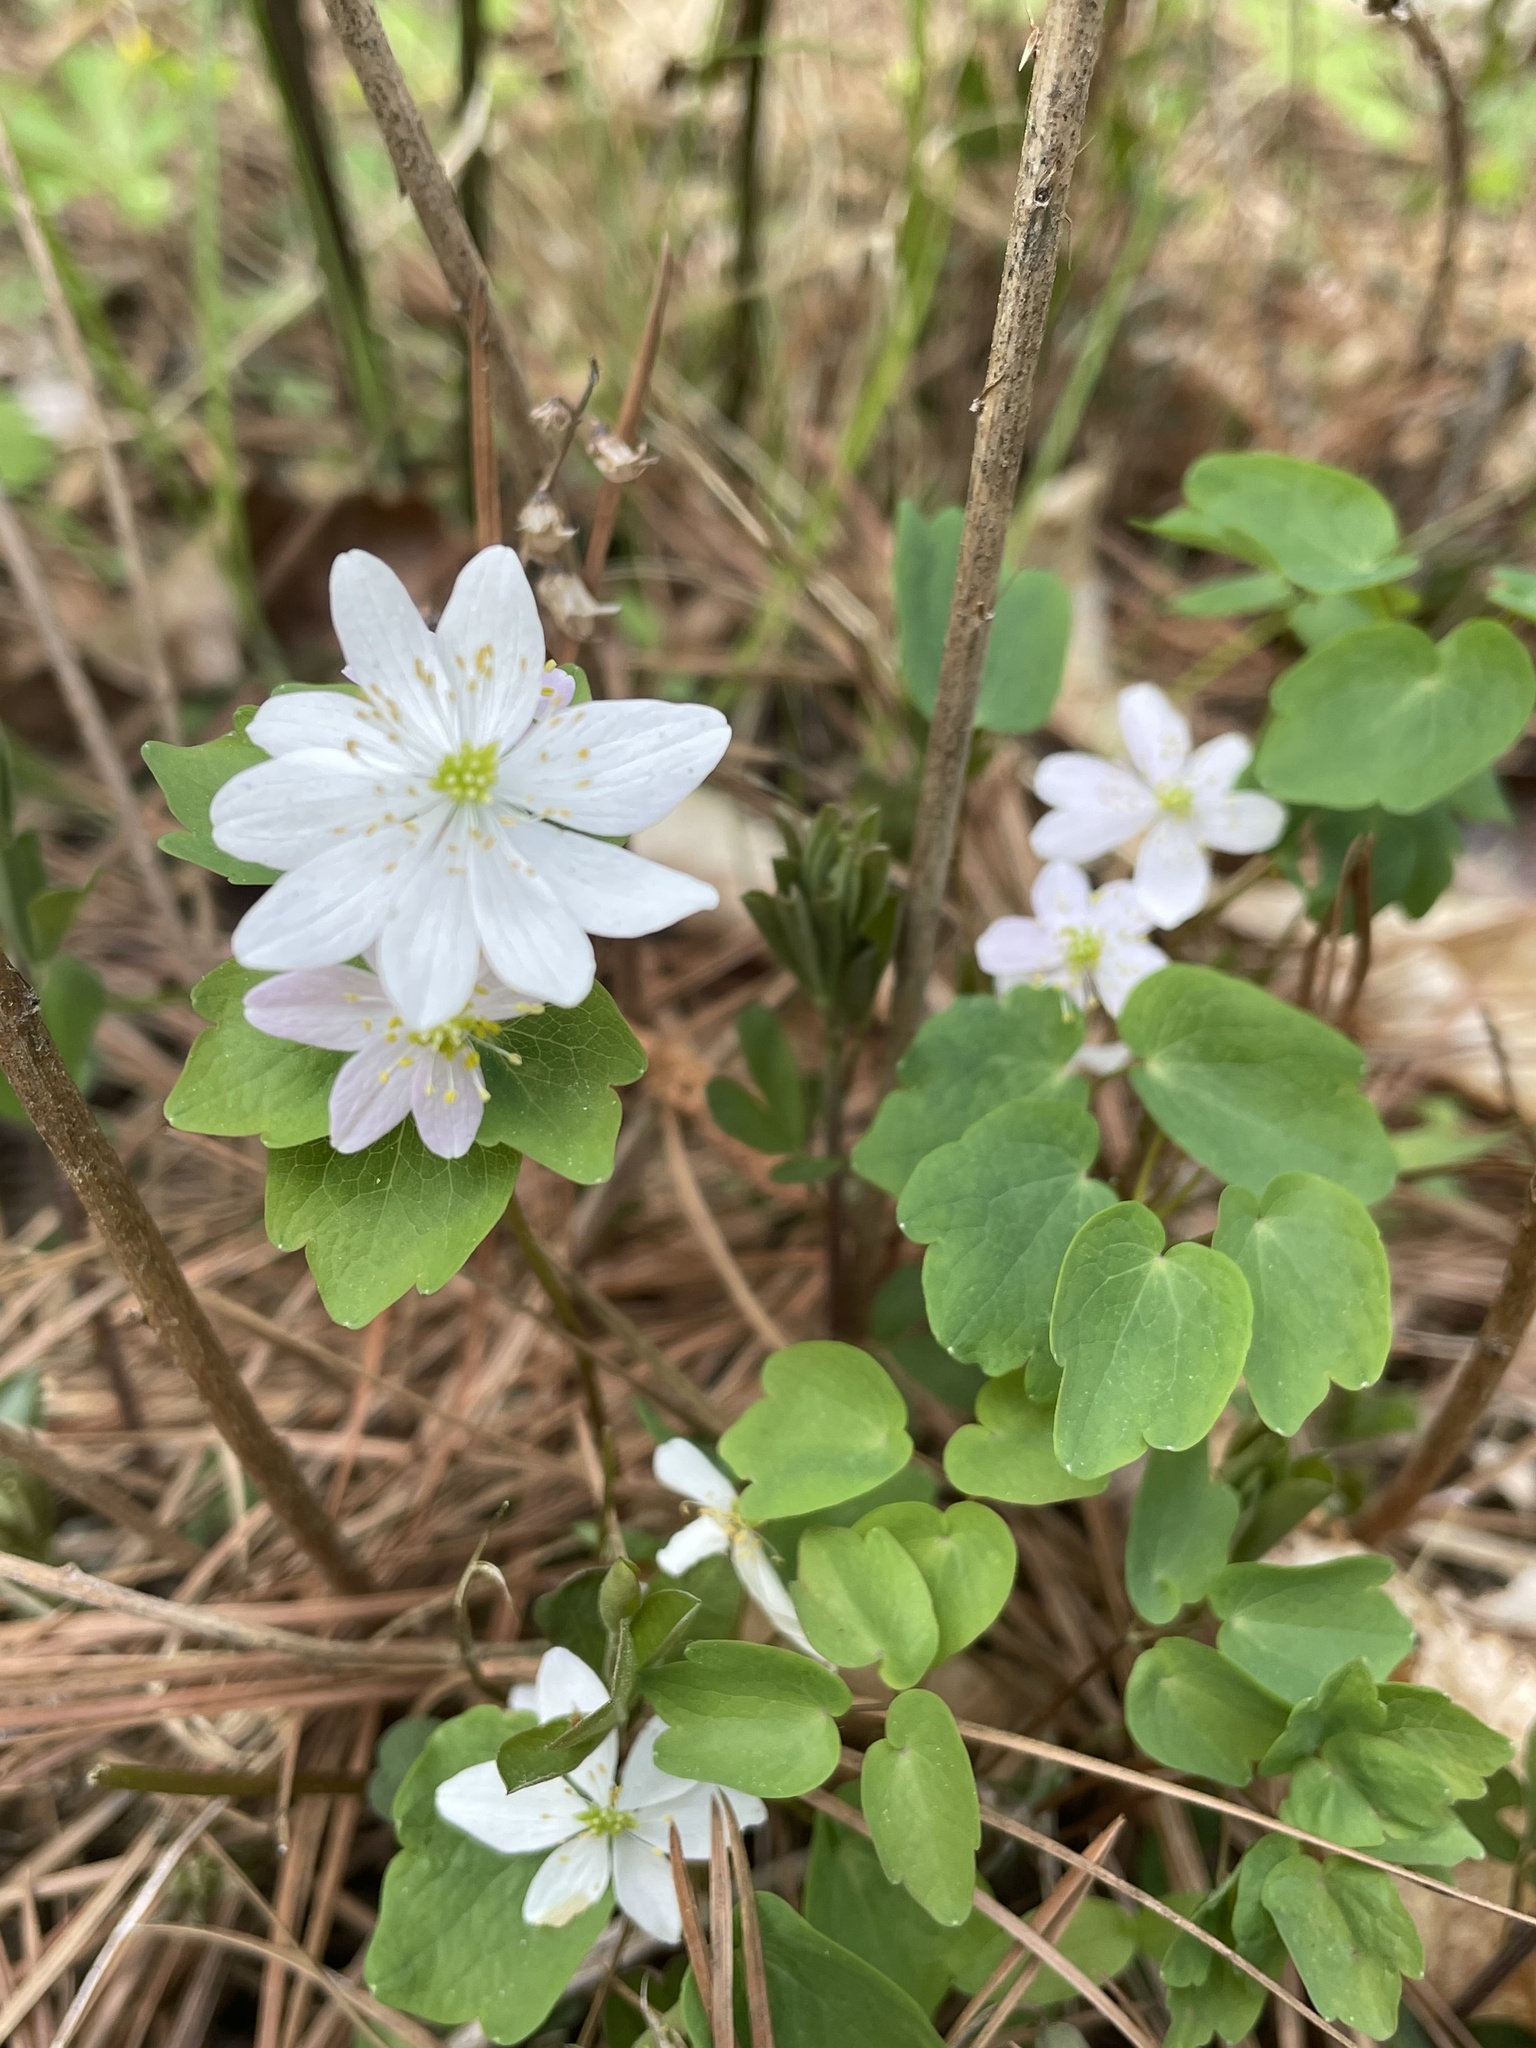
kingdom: Plantae
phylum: Tracheophyta
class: Magnoliopsida
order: Ranunculales
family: Ranunculaceae
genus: Thalictrum
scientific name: Thalictrum thalictroides
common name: Rue-anemone
